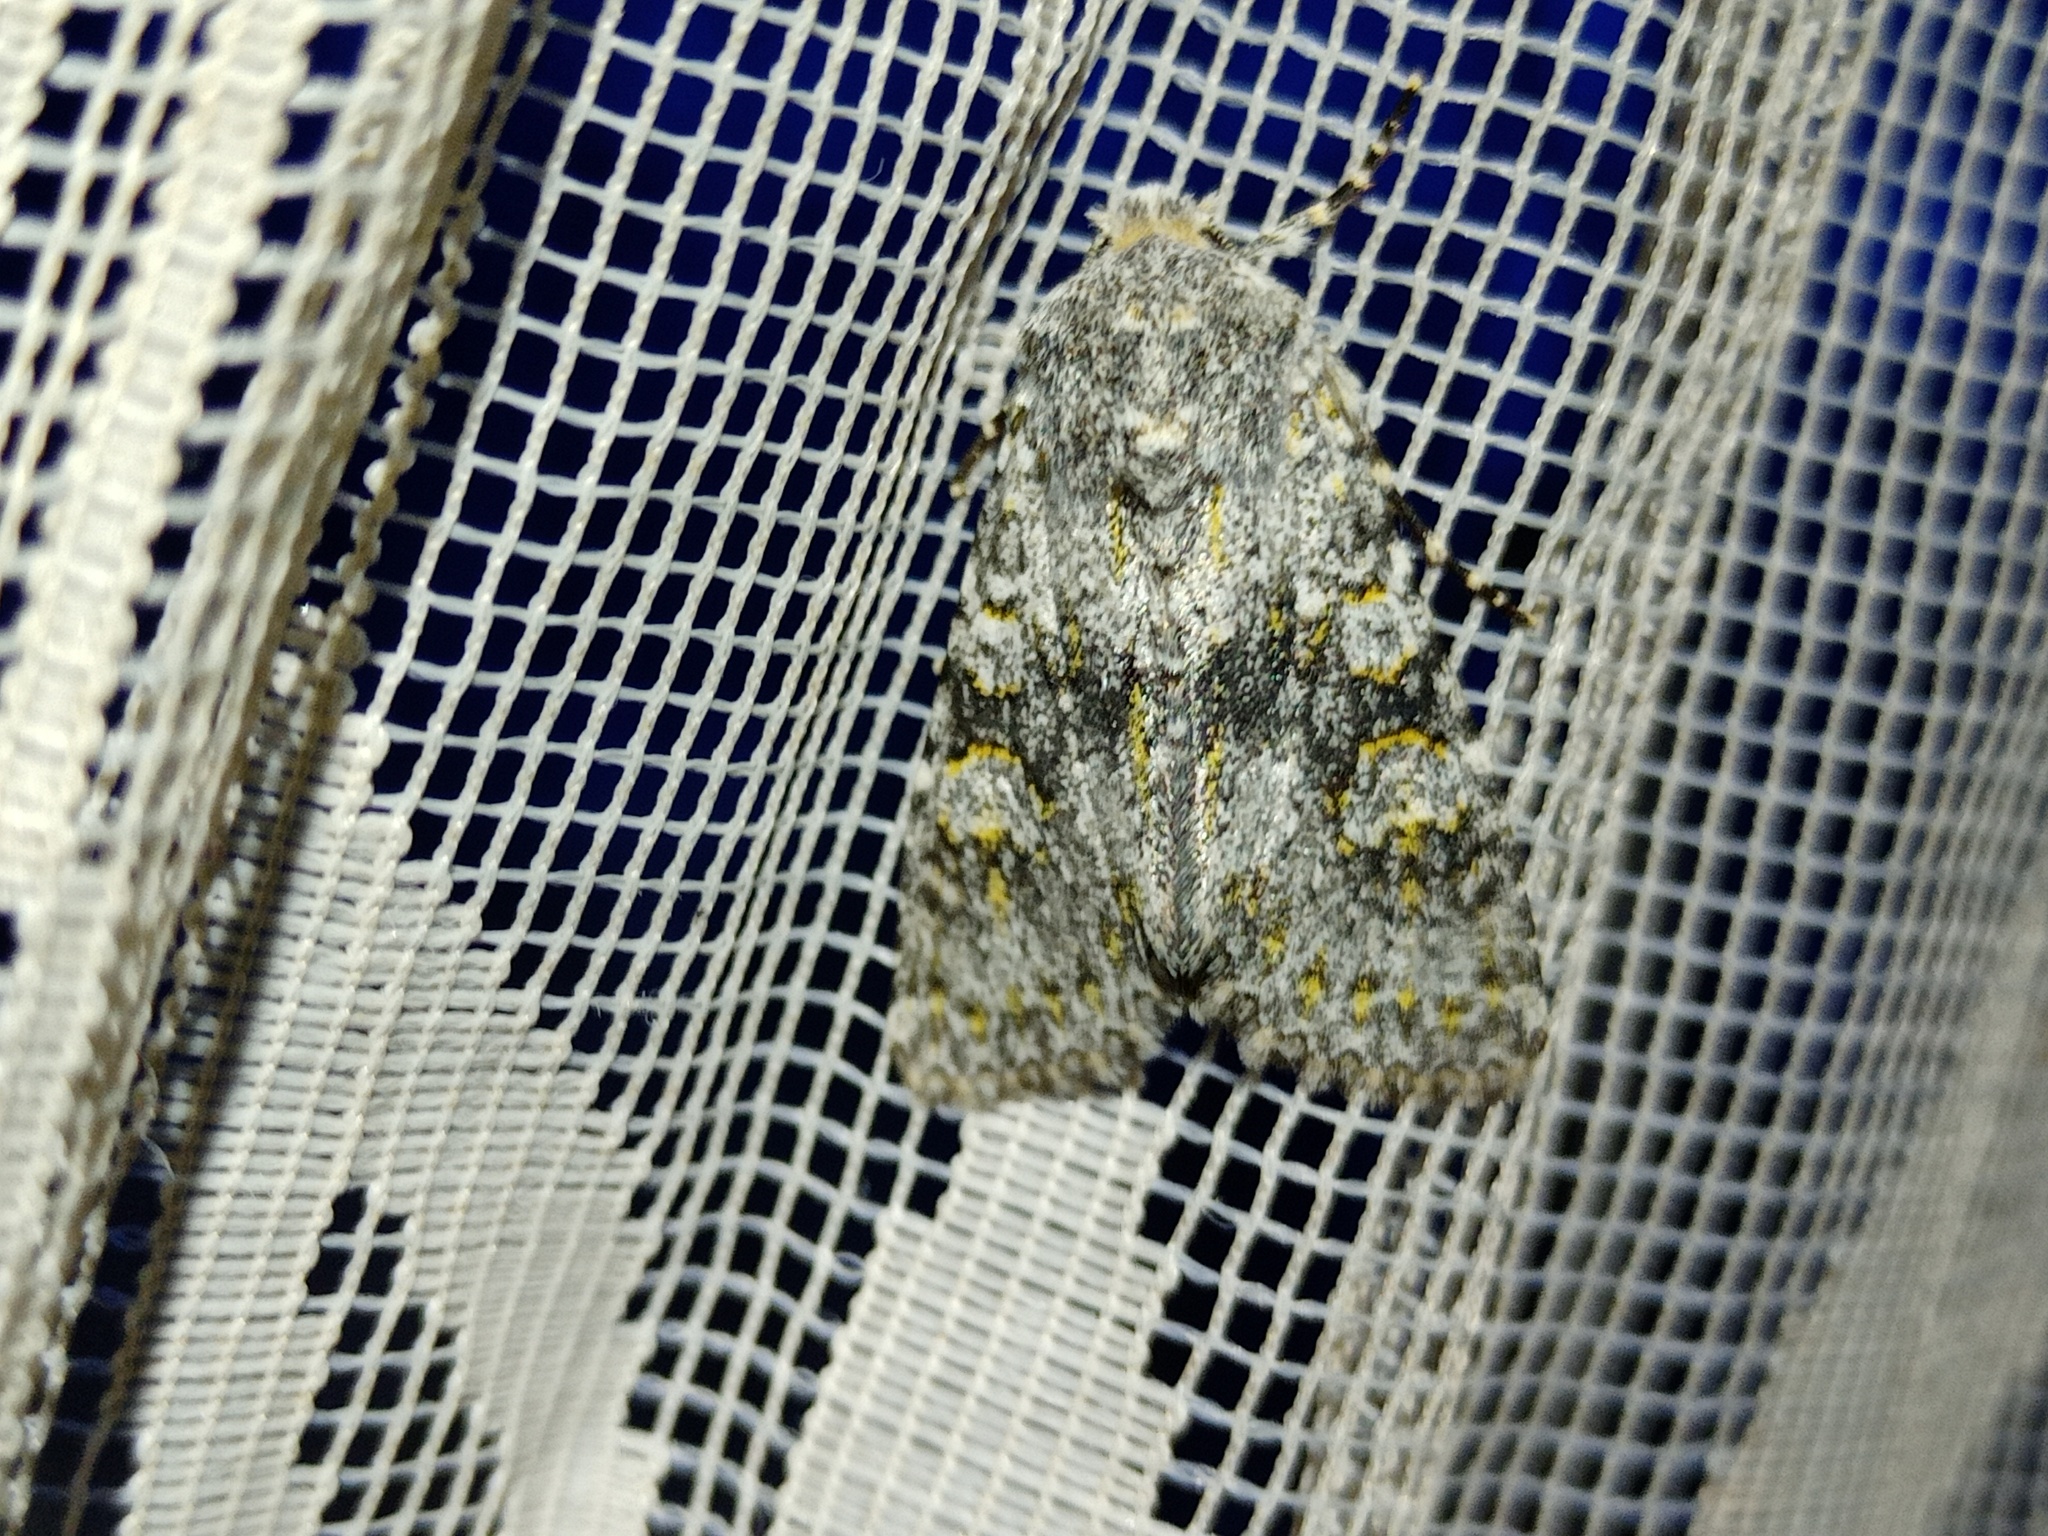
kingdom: Animalia
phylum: Arthropoda
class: Insecta
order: Lepidoptera
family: Noctuidae
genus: Polymixis
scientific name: Polymixis xanthomista
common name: Black-banded
